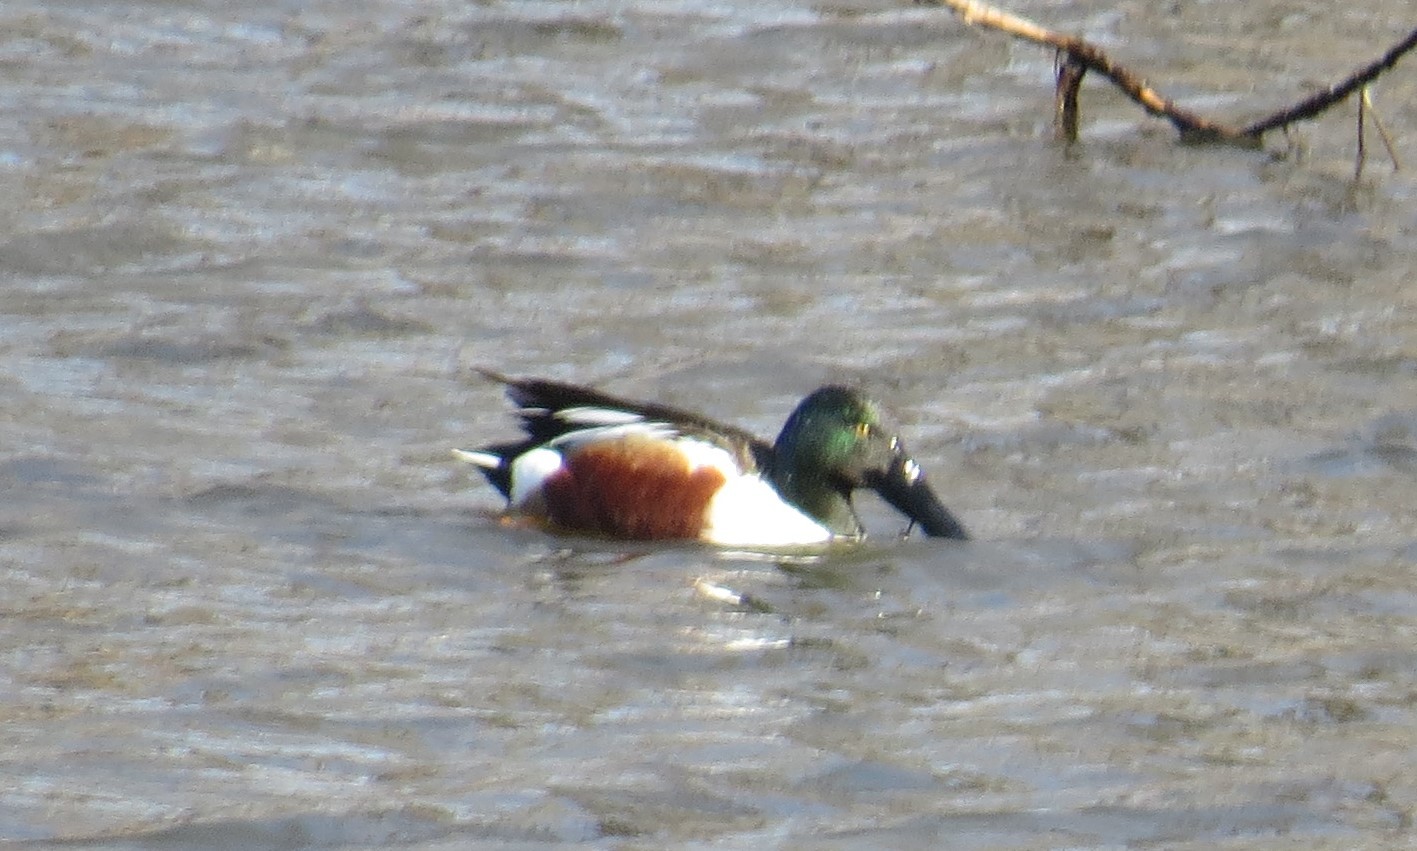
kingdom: Animalia
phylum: Chordata
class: Aves
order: Anseriformes
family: Anatidae
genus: Spatula
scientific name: Spatula clypeata
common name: Northern shoveler
